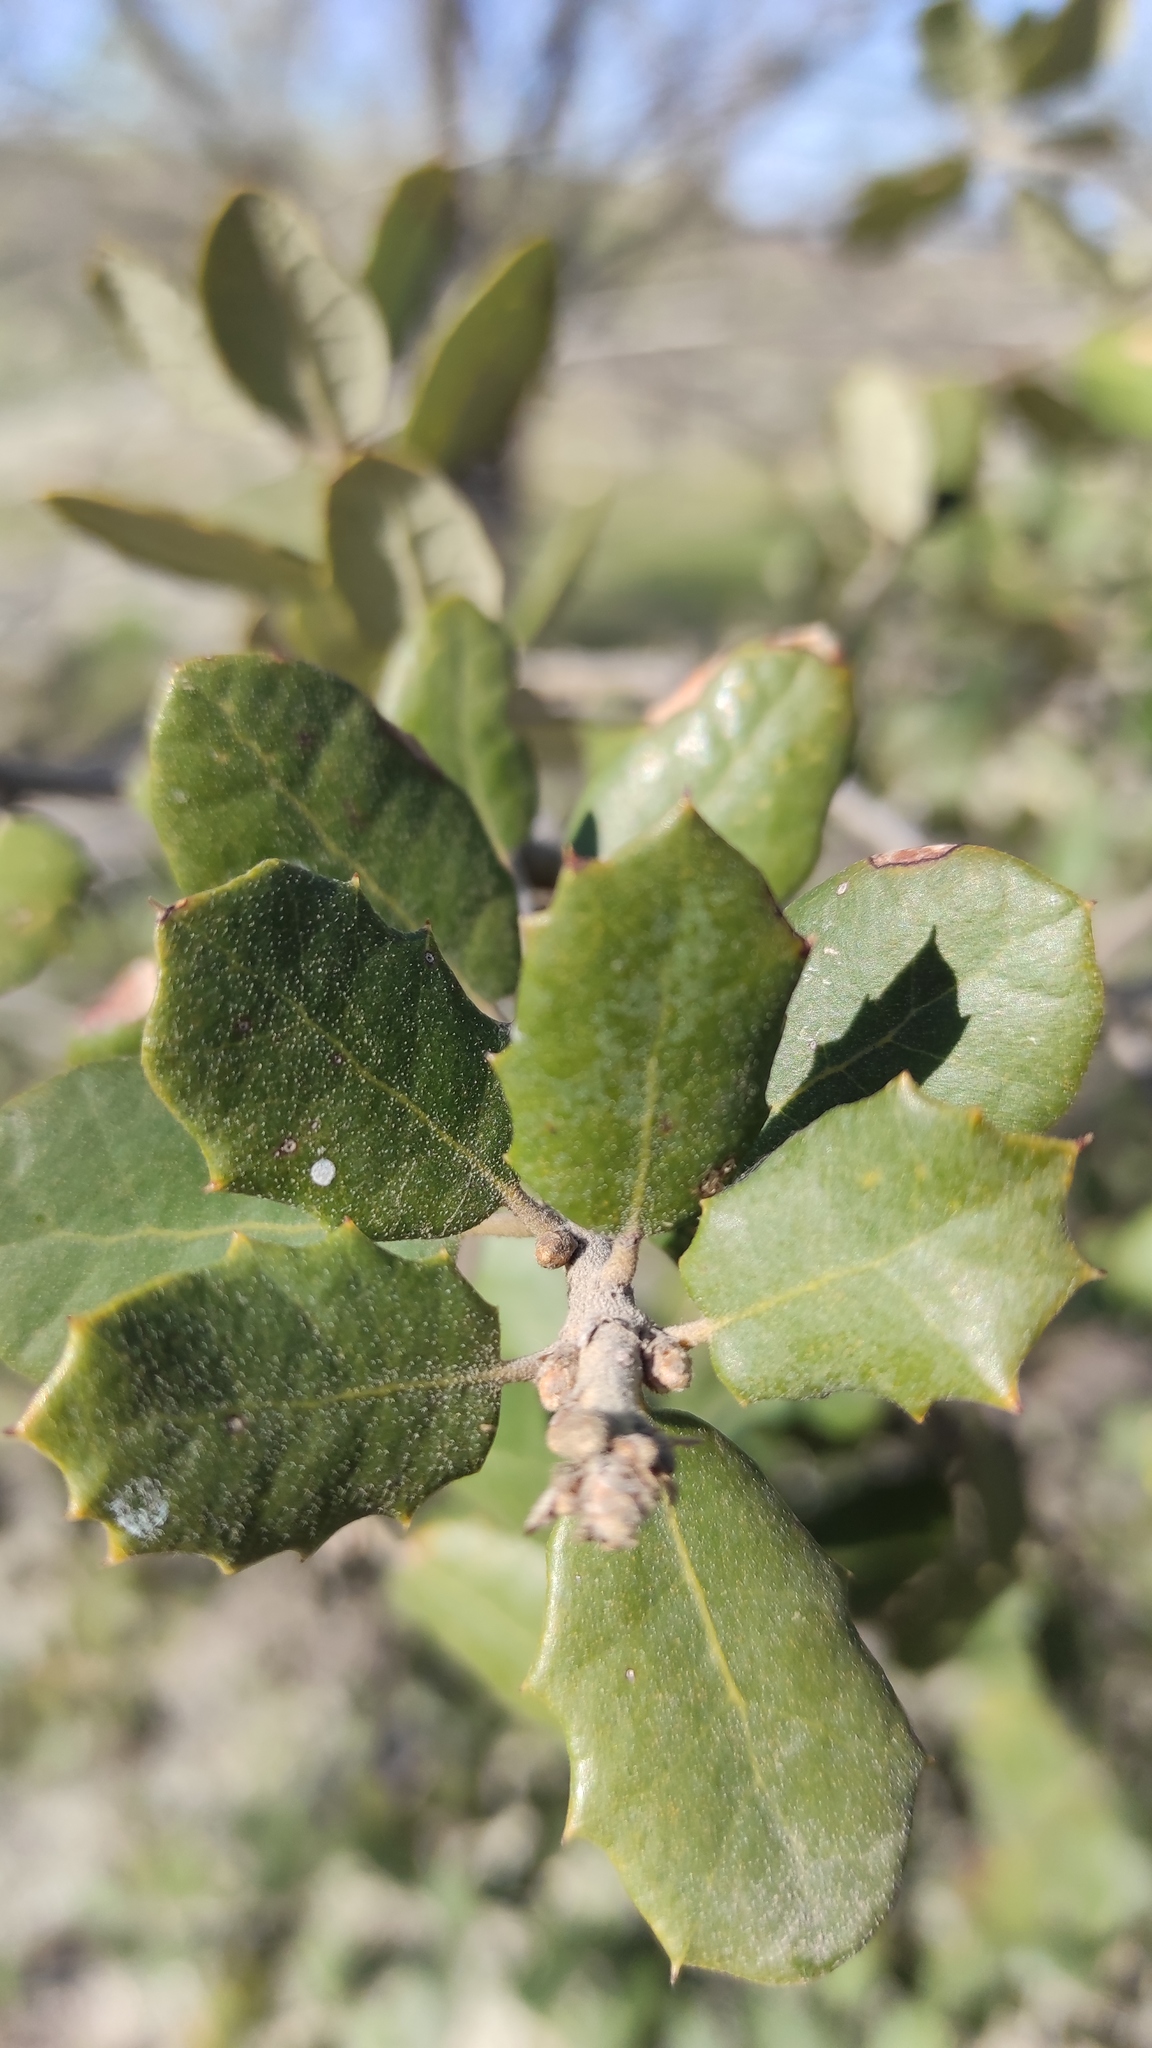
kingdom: Plantae
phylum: Tracheophyta
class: Magnoliopsida
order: Fagales
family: Fagaceae
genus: Quercus
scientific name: Quercus rotundifolia
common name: Holm oak
